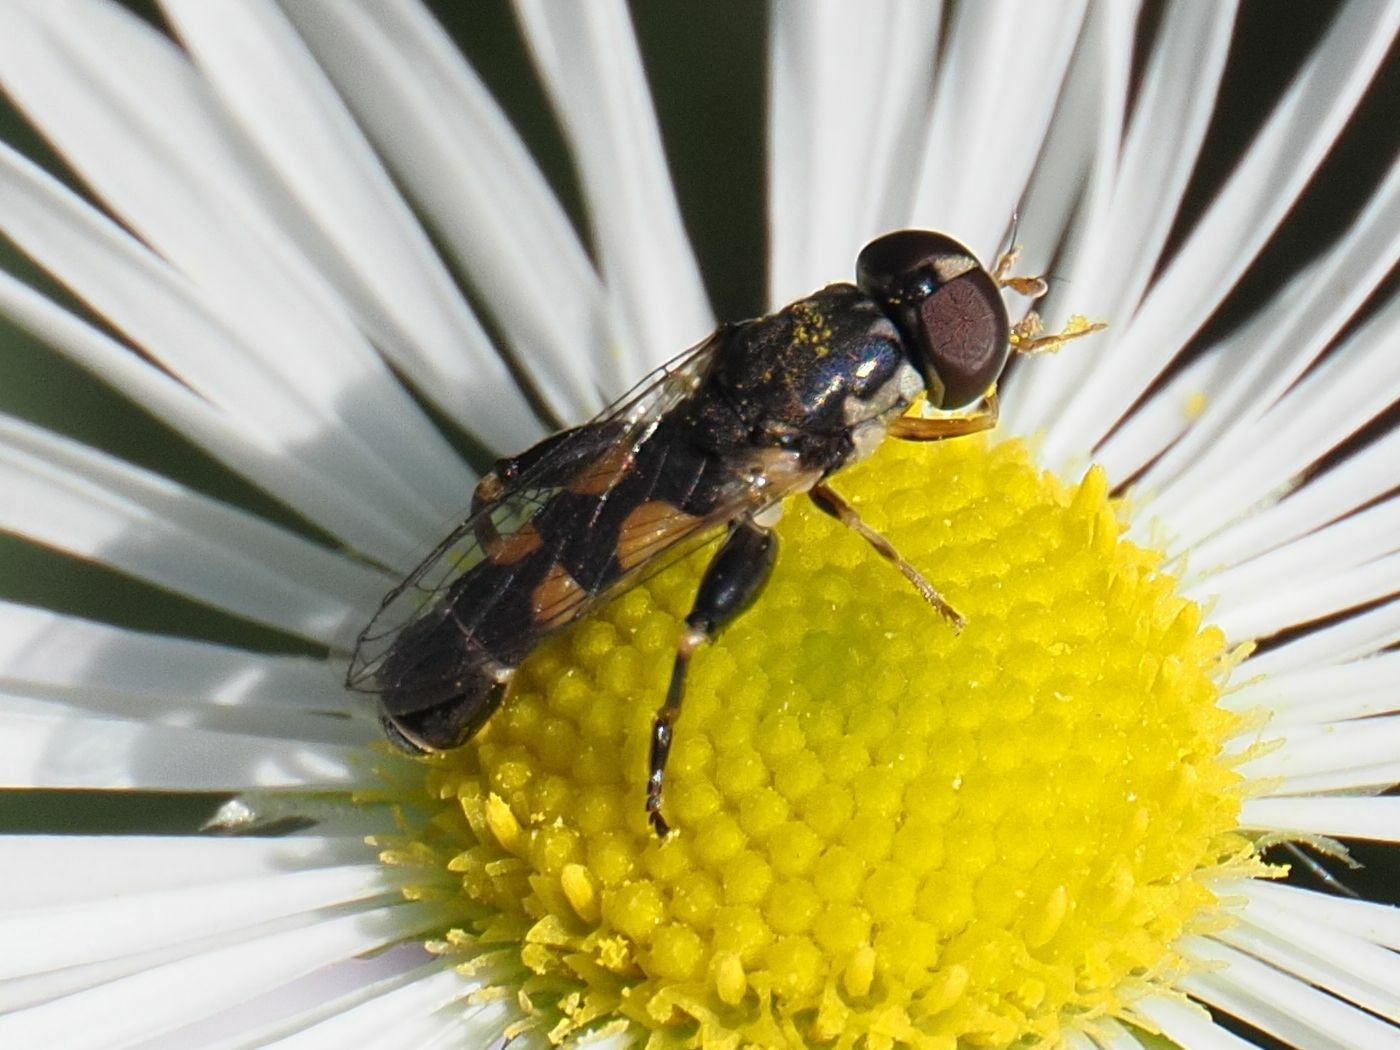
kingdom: Animalia
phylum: Arthropoda
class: Insecta
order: Diptera
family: Syrphidae
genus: Syritta
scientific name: Syritta pipiens
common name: Hover fly
